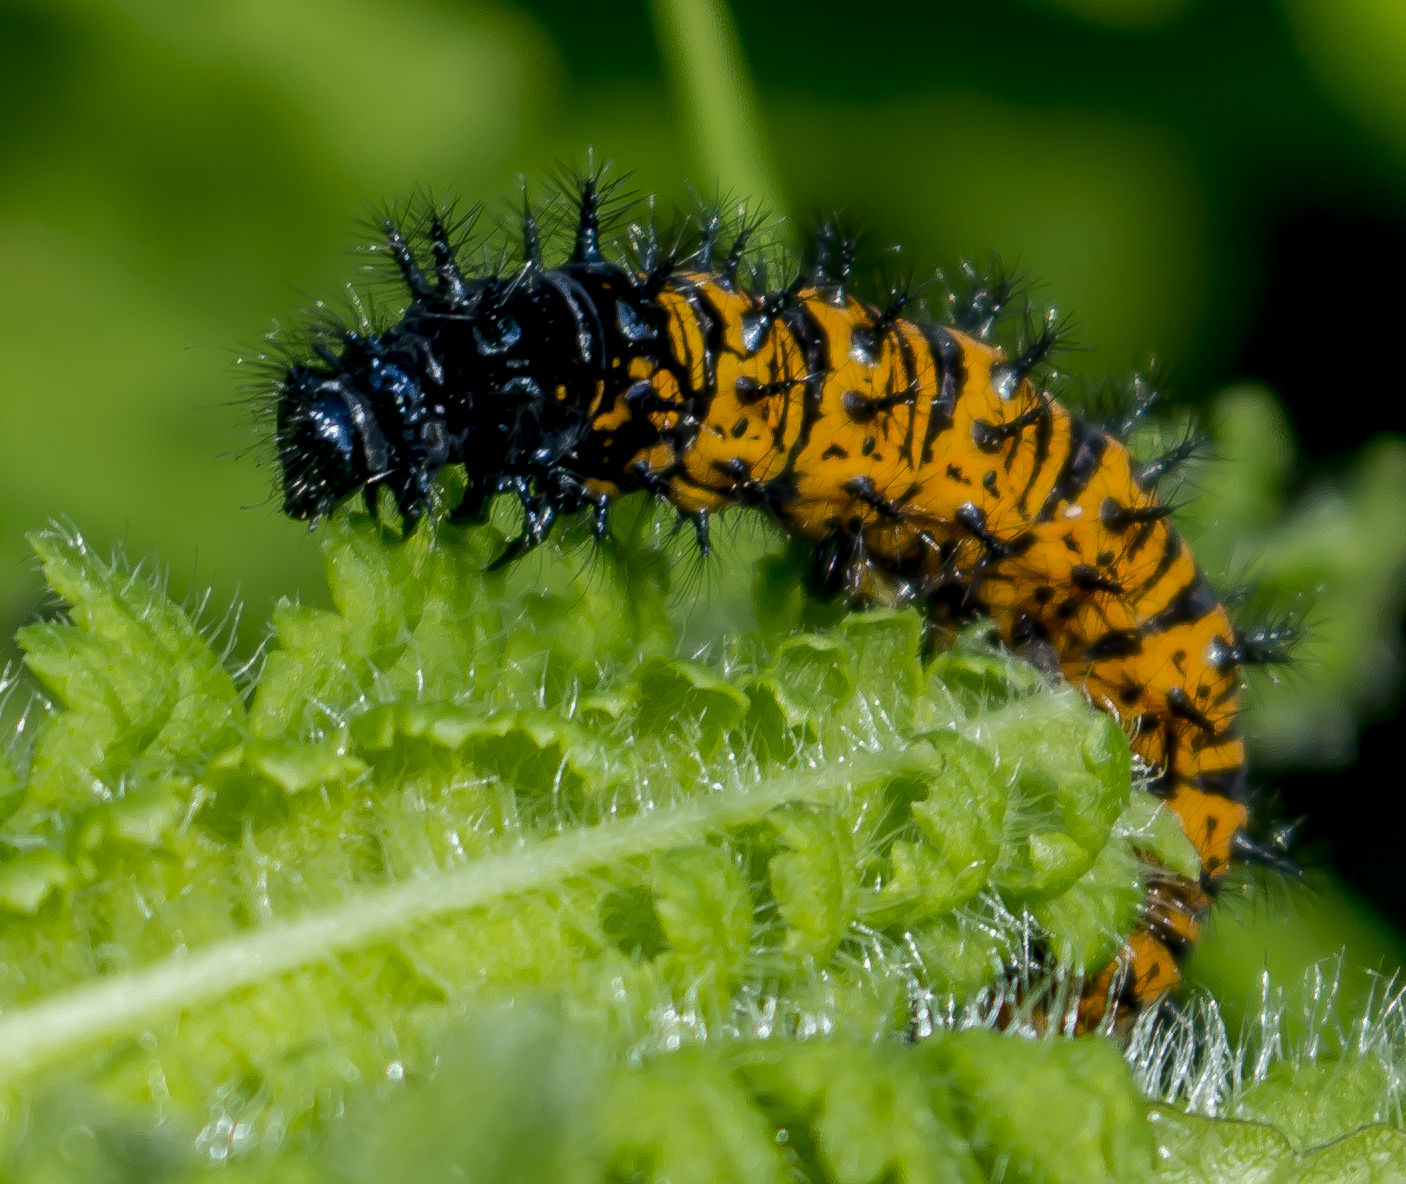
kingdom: Animalia
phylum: Arthropoda
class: Insecta
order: Lepidoptera
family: Nymphalidae
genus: Euphydryas
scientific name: Euphydryas phaeton
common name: Baltimore checkerspot
